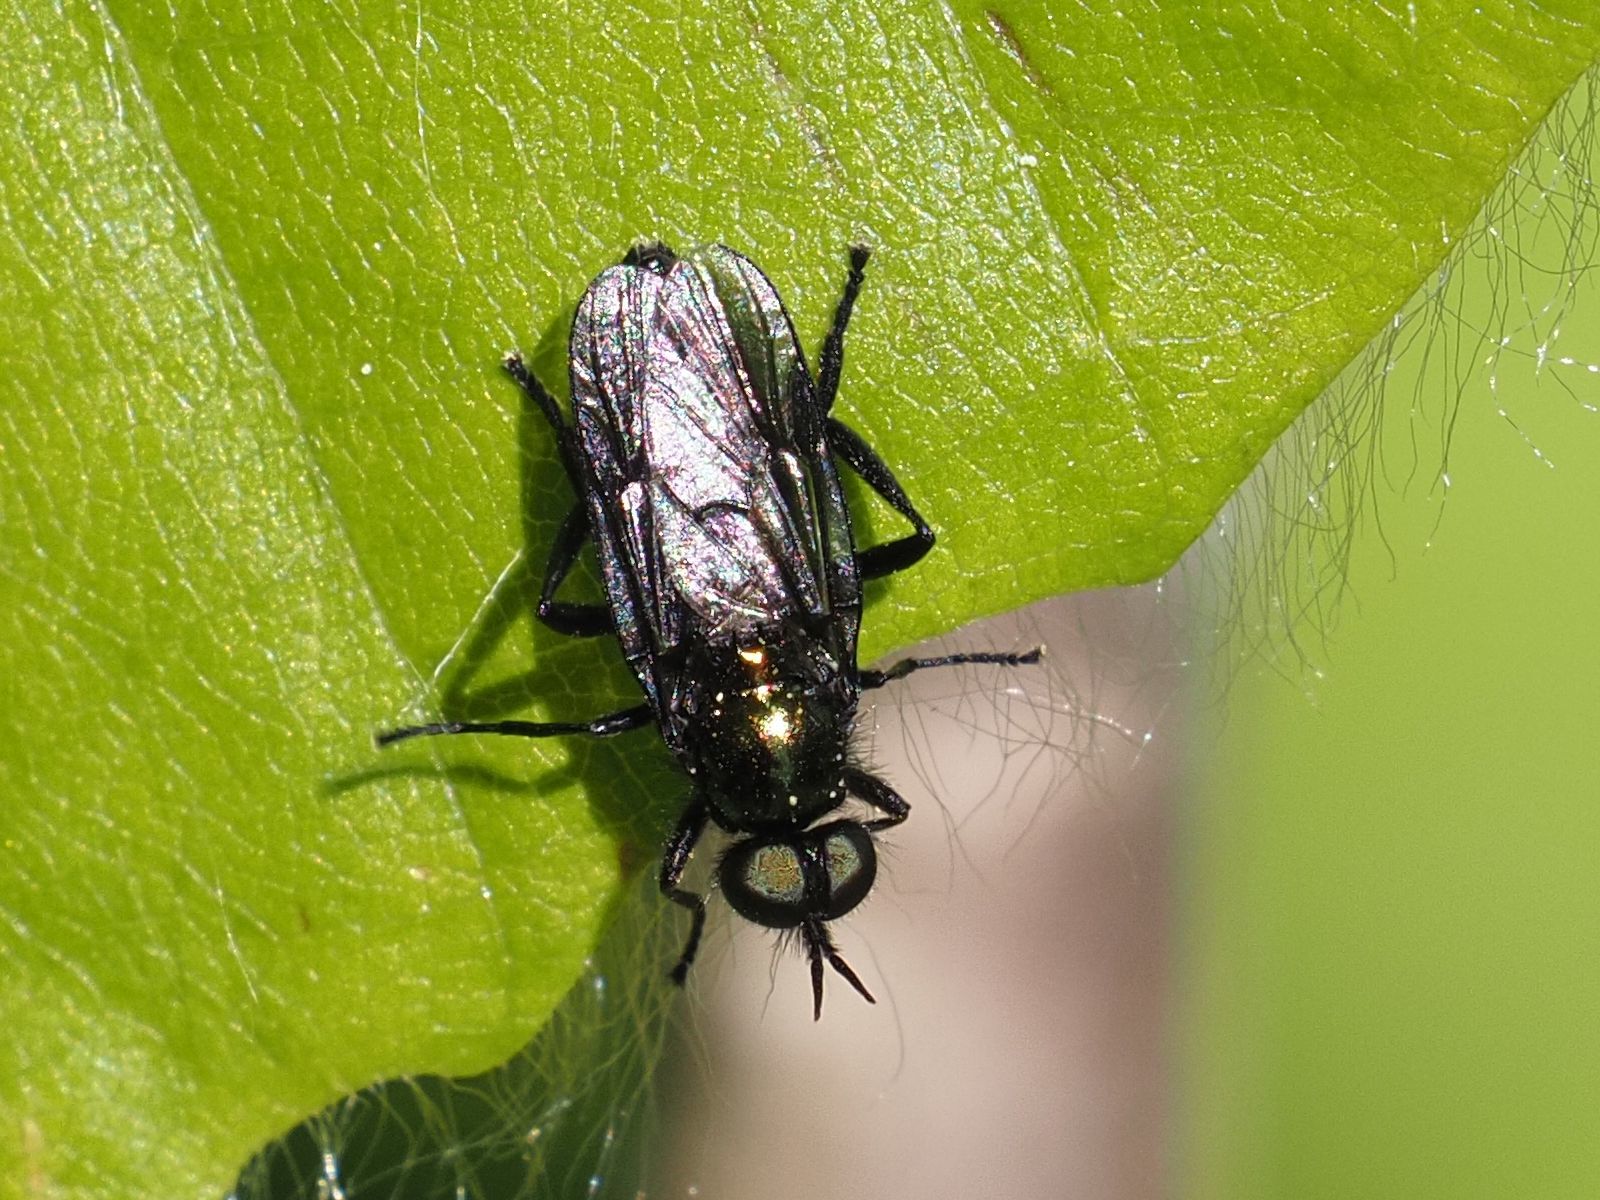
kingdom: Animalia
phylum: Arthropoda
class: Insecta
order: Diptera
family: Stratiomyidae
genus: Actina
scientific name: Actina chalybea
